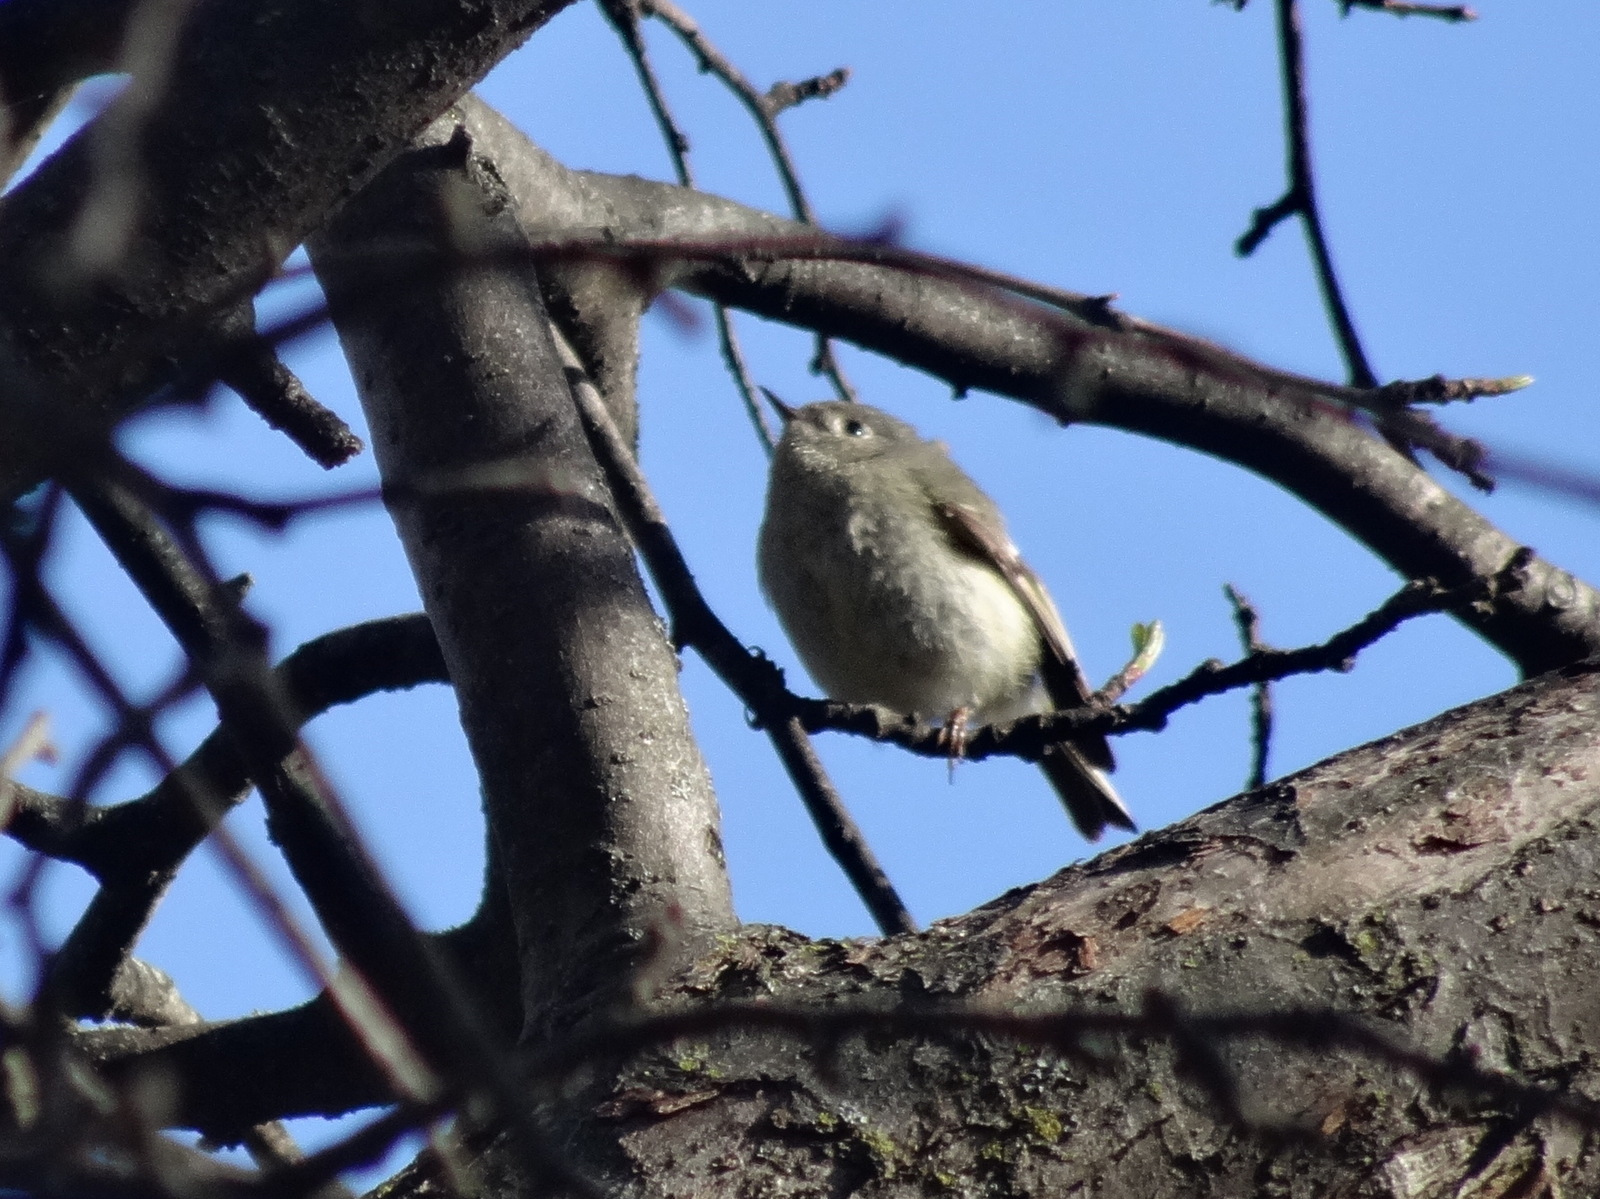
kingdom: Animalia
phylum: Chordata
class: Aves
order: Passeriformes
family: Regulidae
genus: Regulus
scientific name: Regulus calendula
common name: Ruby-crowned kinglet
